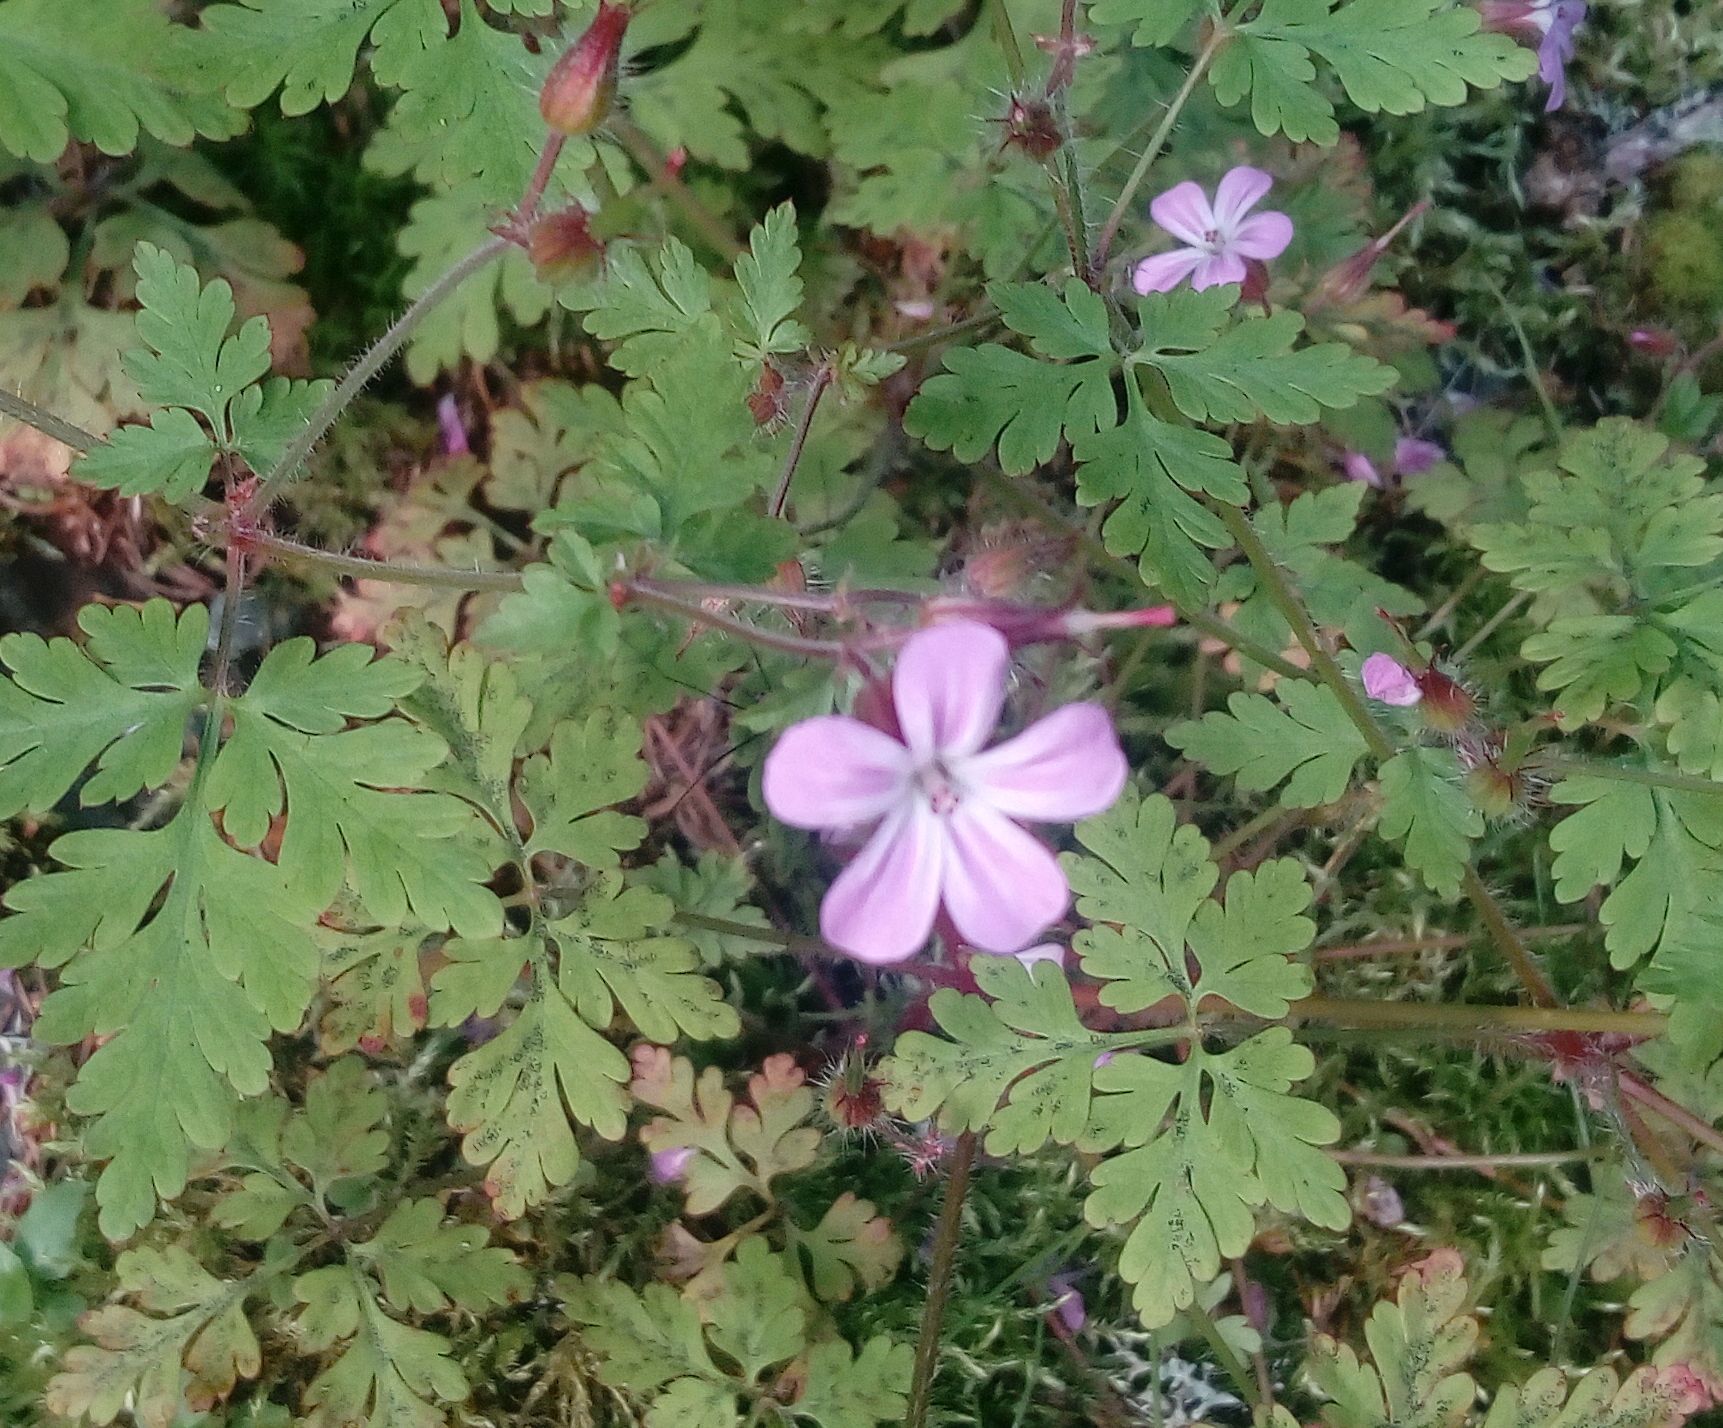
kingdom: Plantae
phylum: Tracheophyta
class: Magnoliopsida
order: Geraniales
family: Geraniaceae
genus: Geranium
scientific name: Geranium robertianum
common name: Herb-robert
